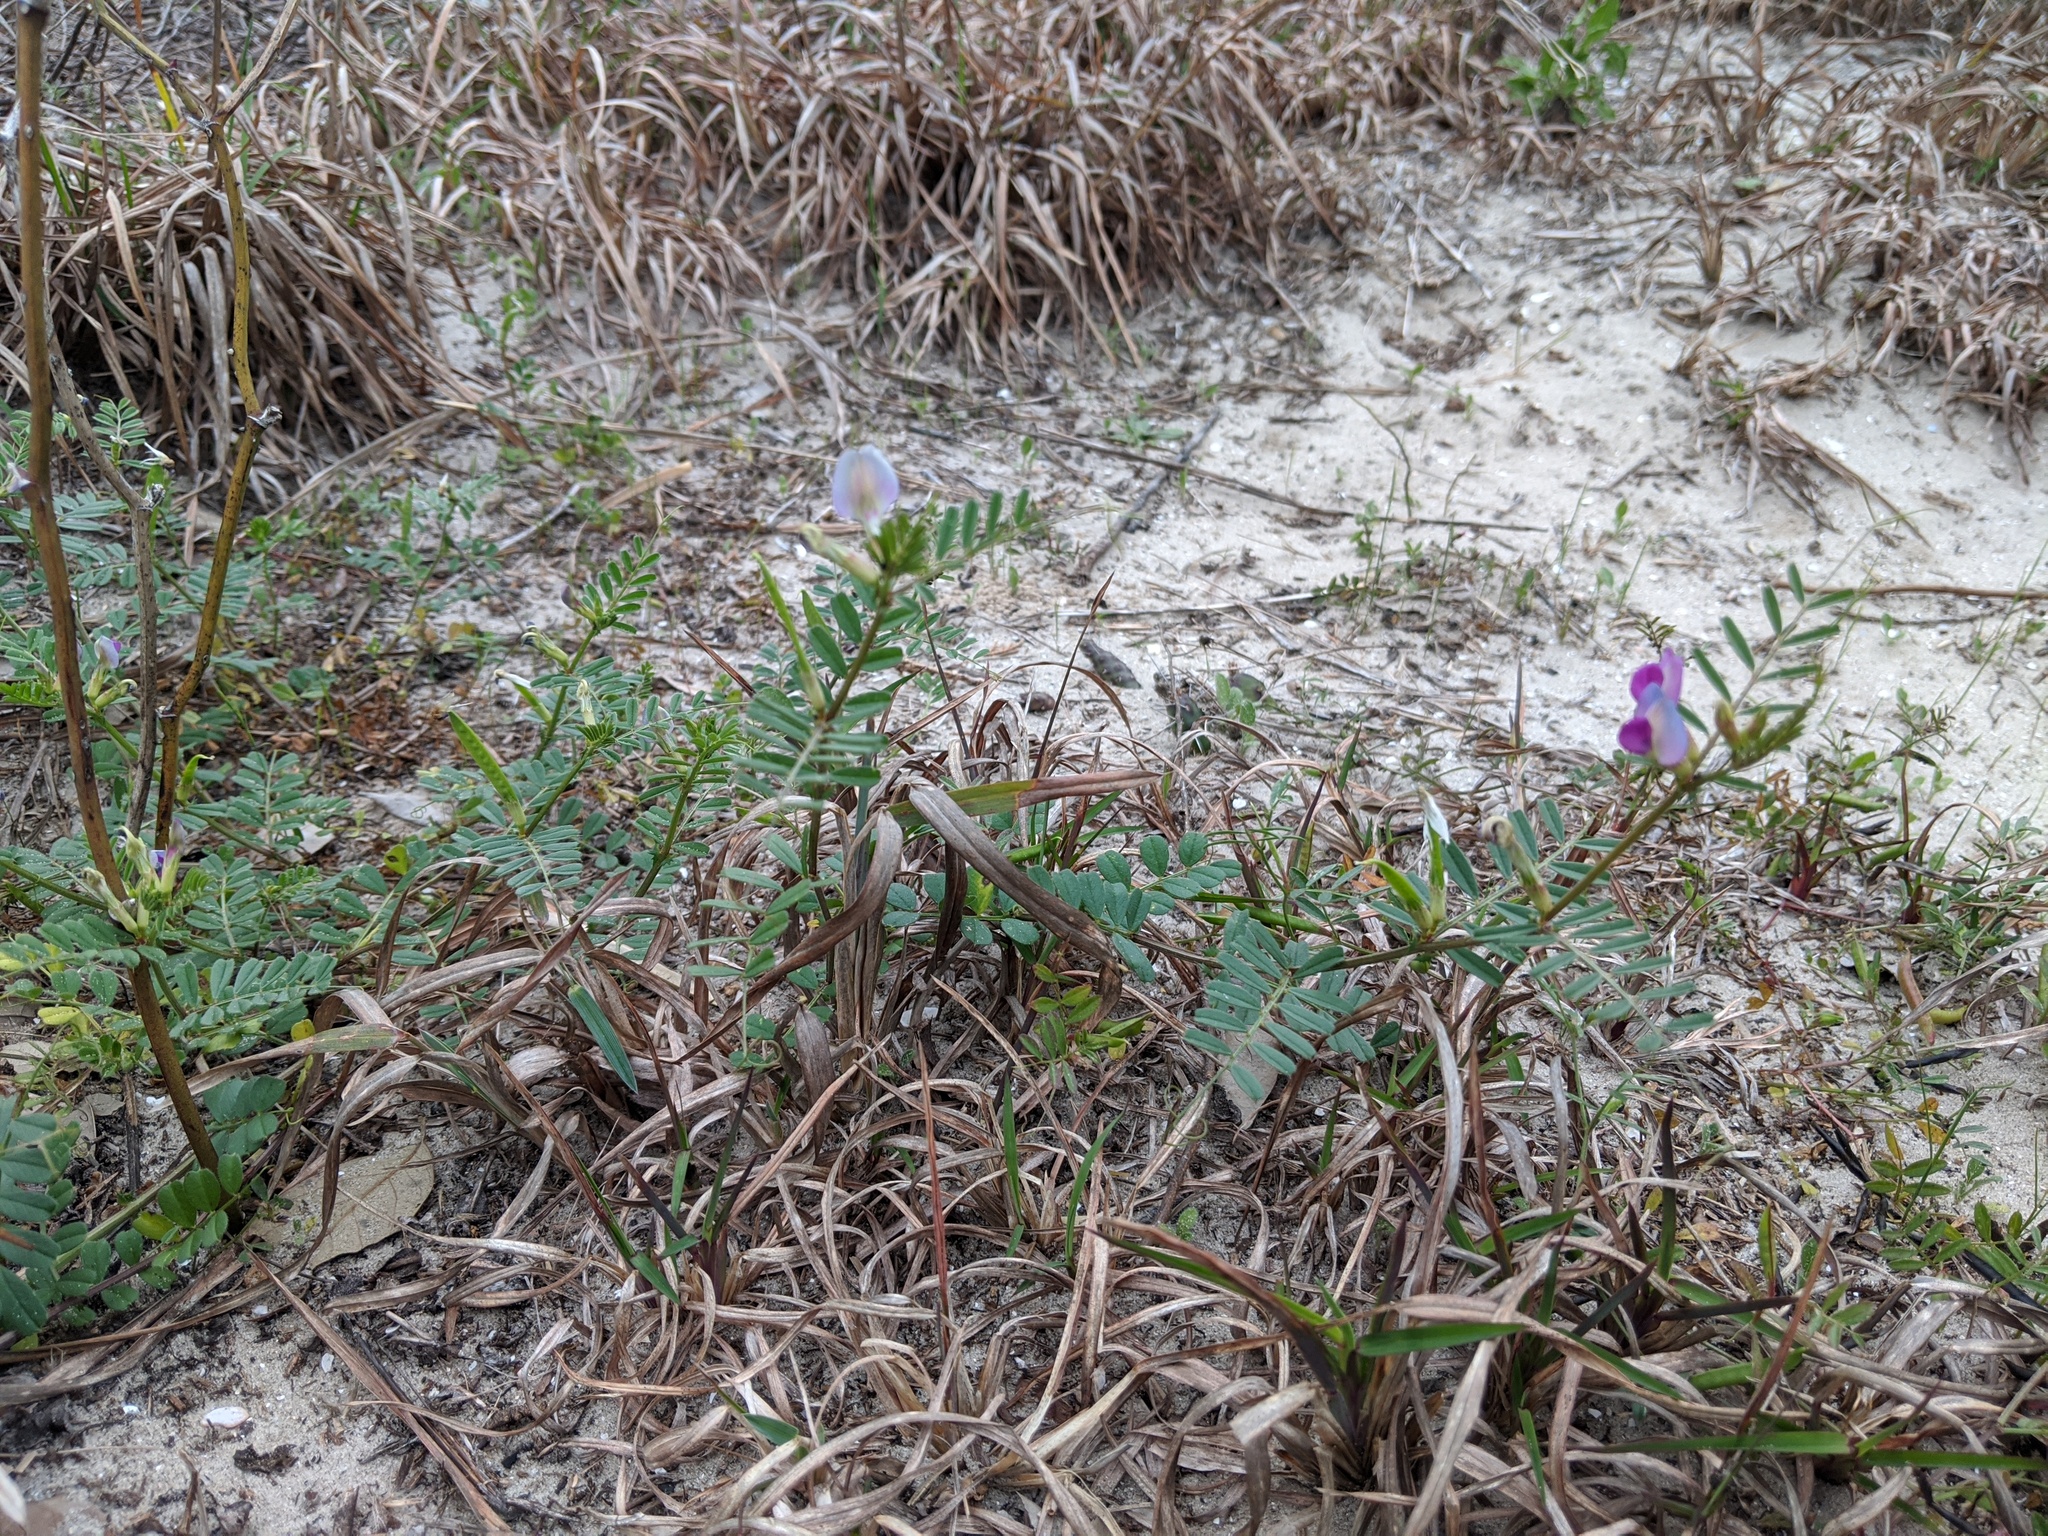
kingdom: Plantae
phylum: Tracheophyta
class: Magnoliopsida
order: Fabales
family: Fabaceae
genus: Vicia
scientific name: Vicia sativa
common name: Garden vetch
